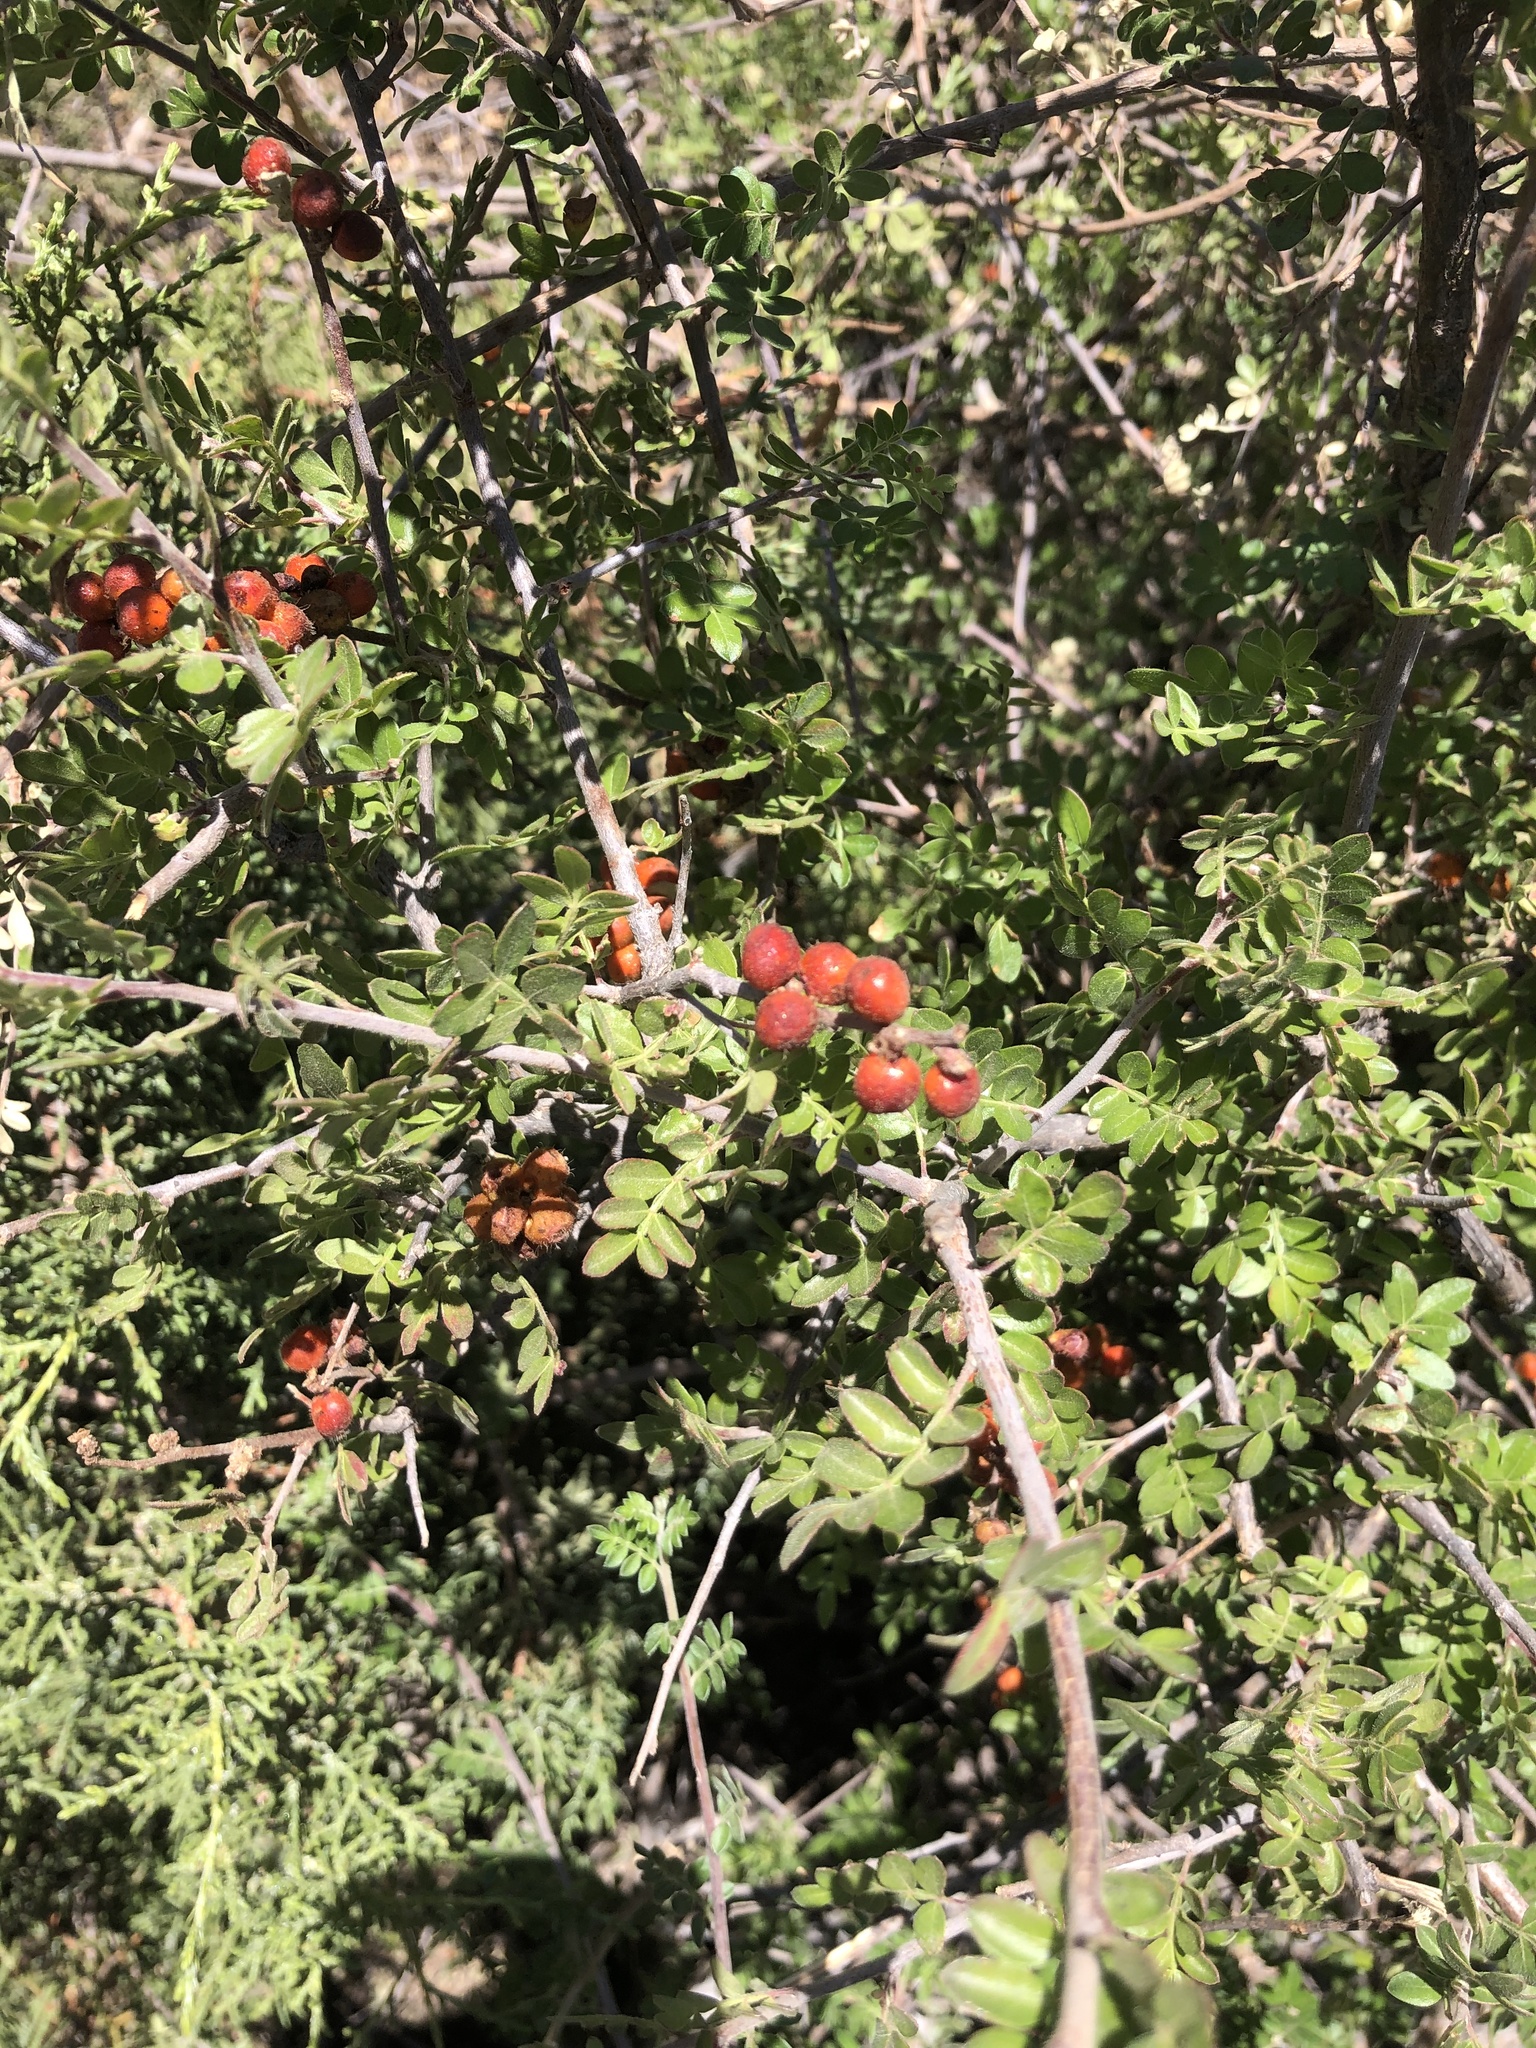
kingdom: Plantae
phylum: Tracheophyta
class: Magnoliopsida
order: Sapindales
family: Anacardiaceae
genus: Rhus
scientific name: Rhus microphylla
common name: Desert sumac
